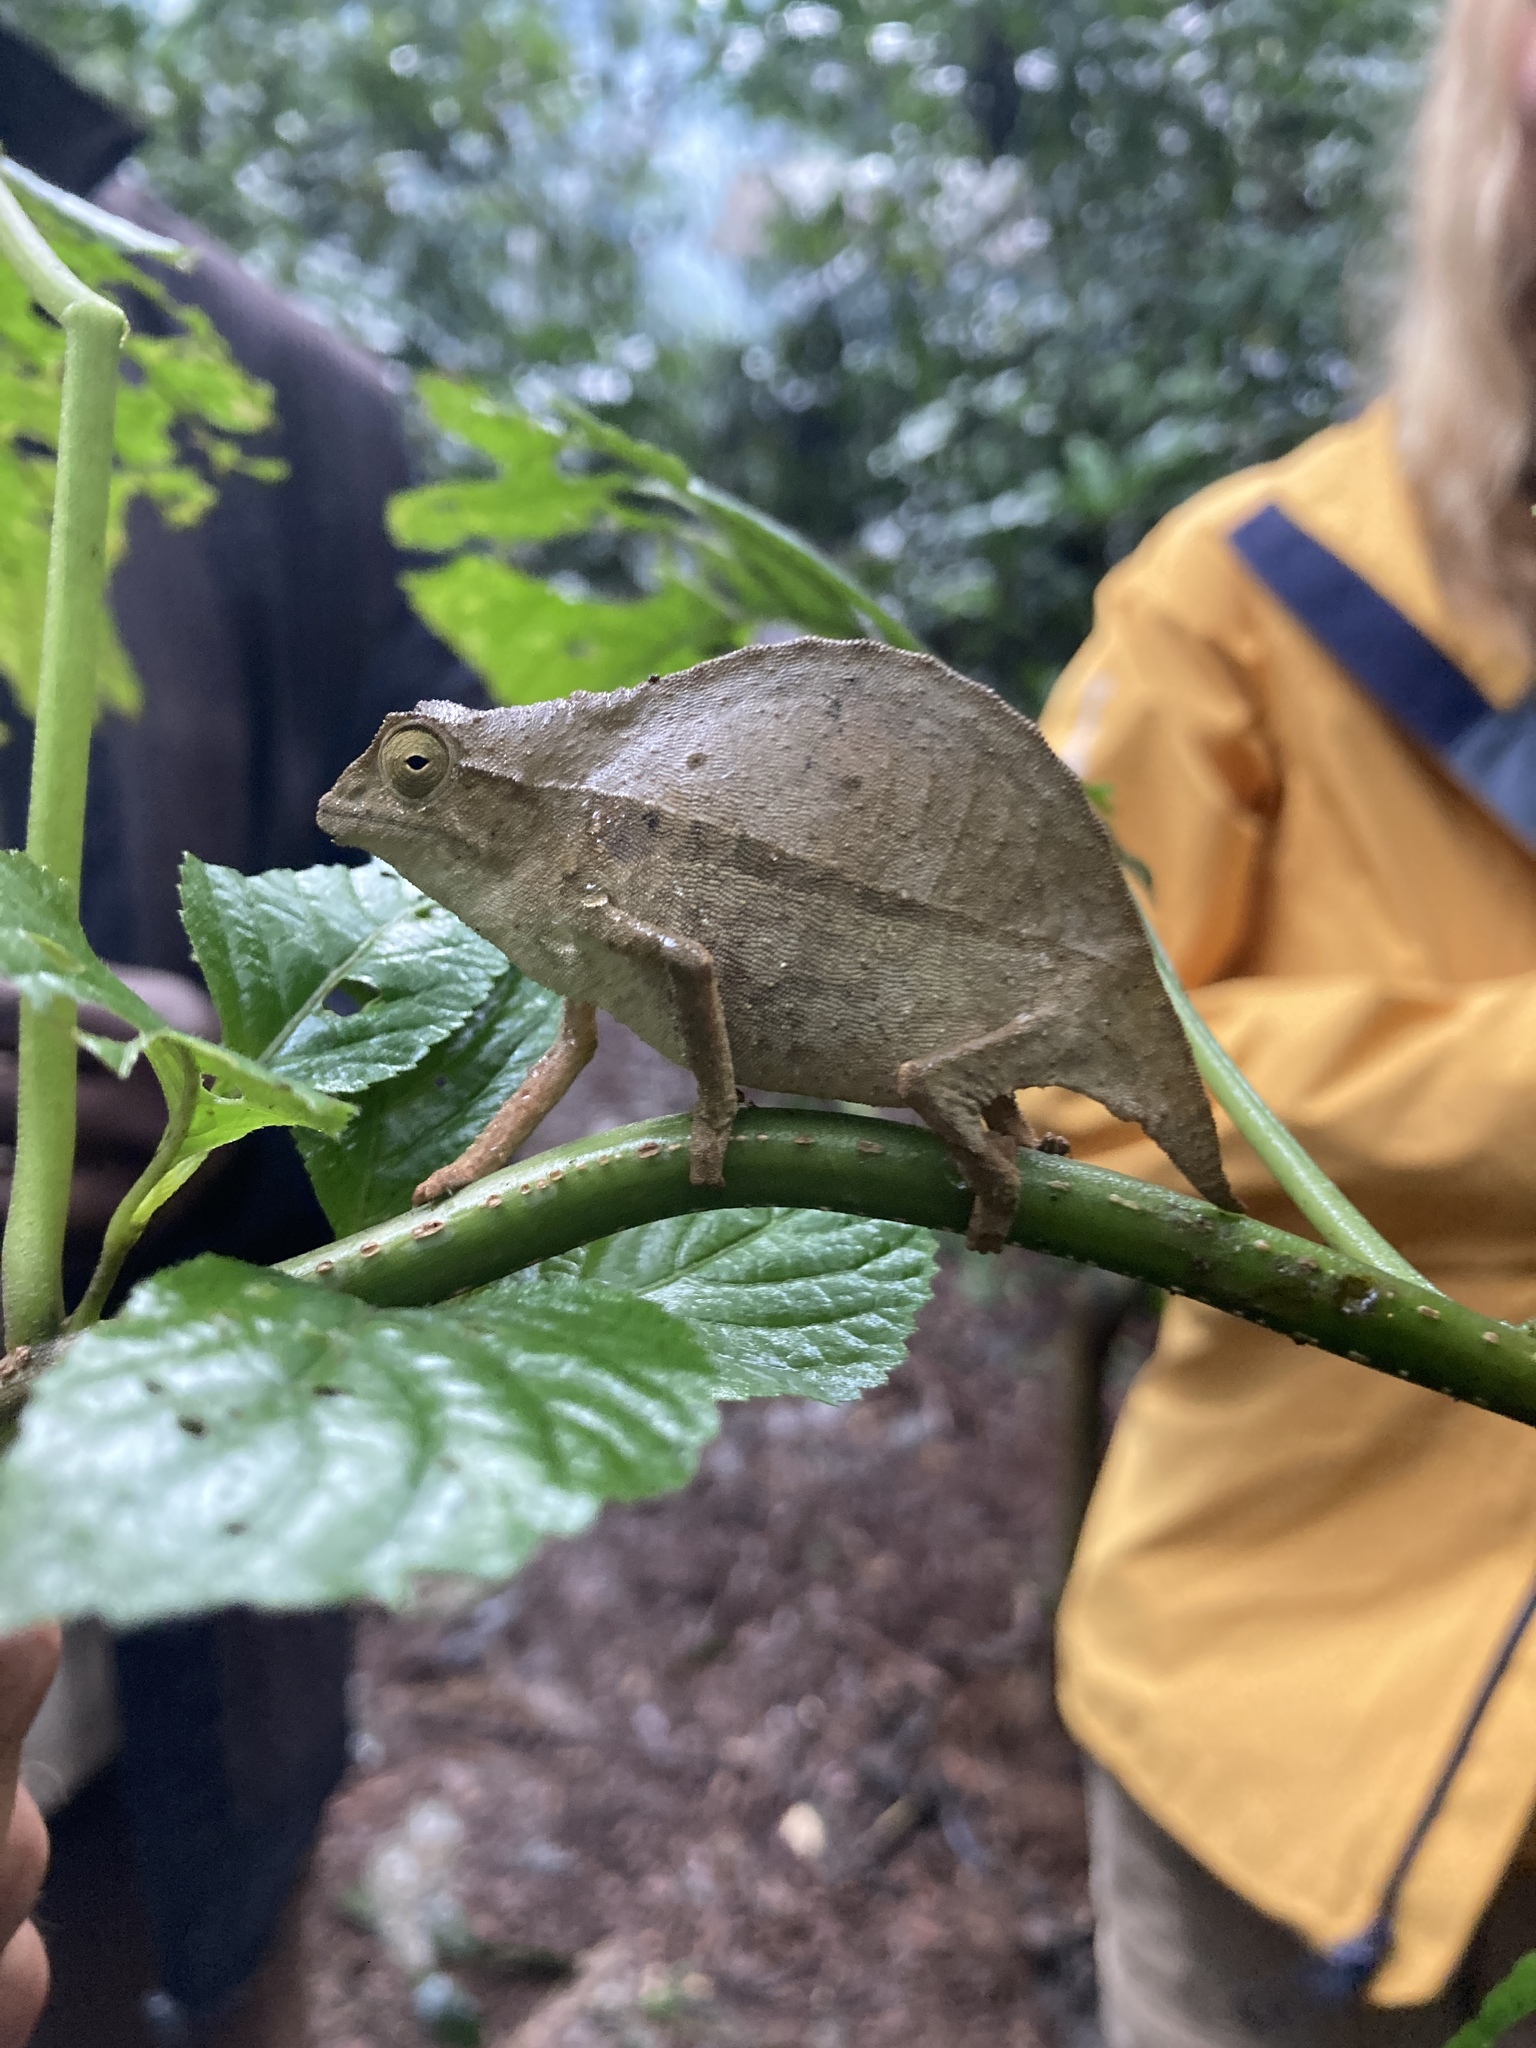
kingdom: Animalia
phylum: Chordata
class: Squamata
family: Chamaeleonidae
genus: Rieppeleon
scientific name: Rieppeleon brevicaudatus
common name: Bearded pygmy chameleon
